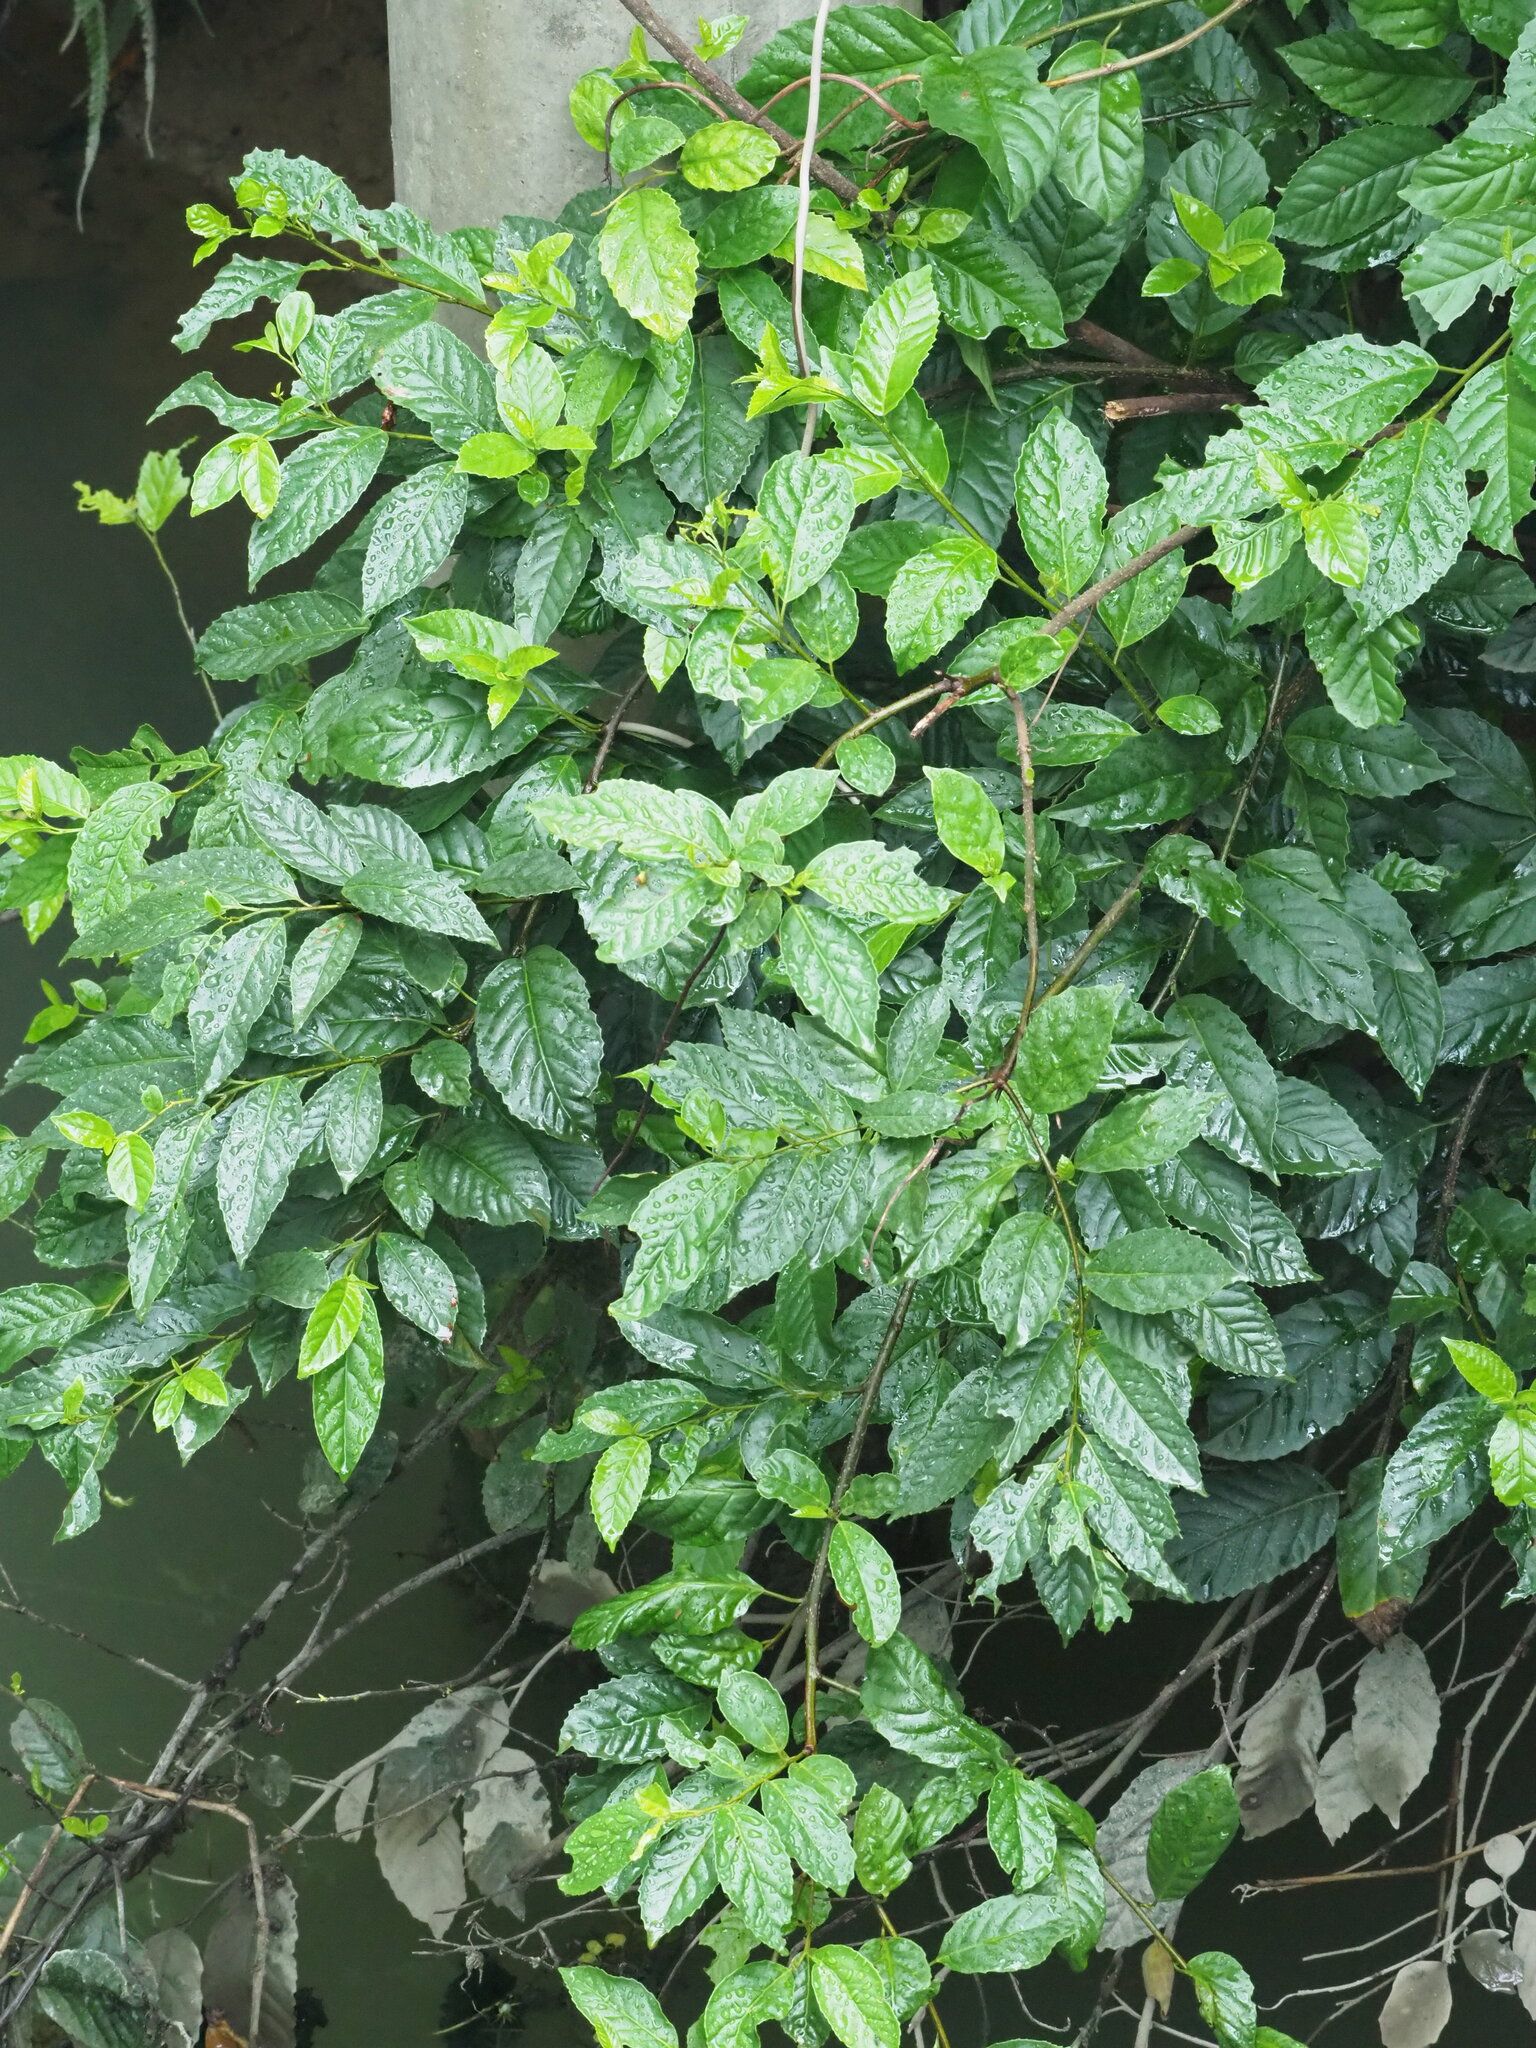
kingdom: Plantae
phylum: Tracheophyta
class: Magnoliopsida
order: Ericales
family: Primulaceae
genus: Maesa
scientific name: Maesa perlaria
